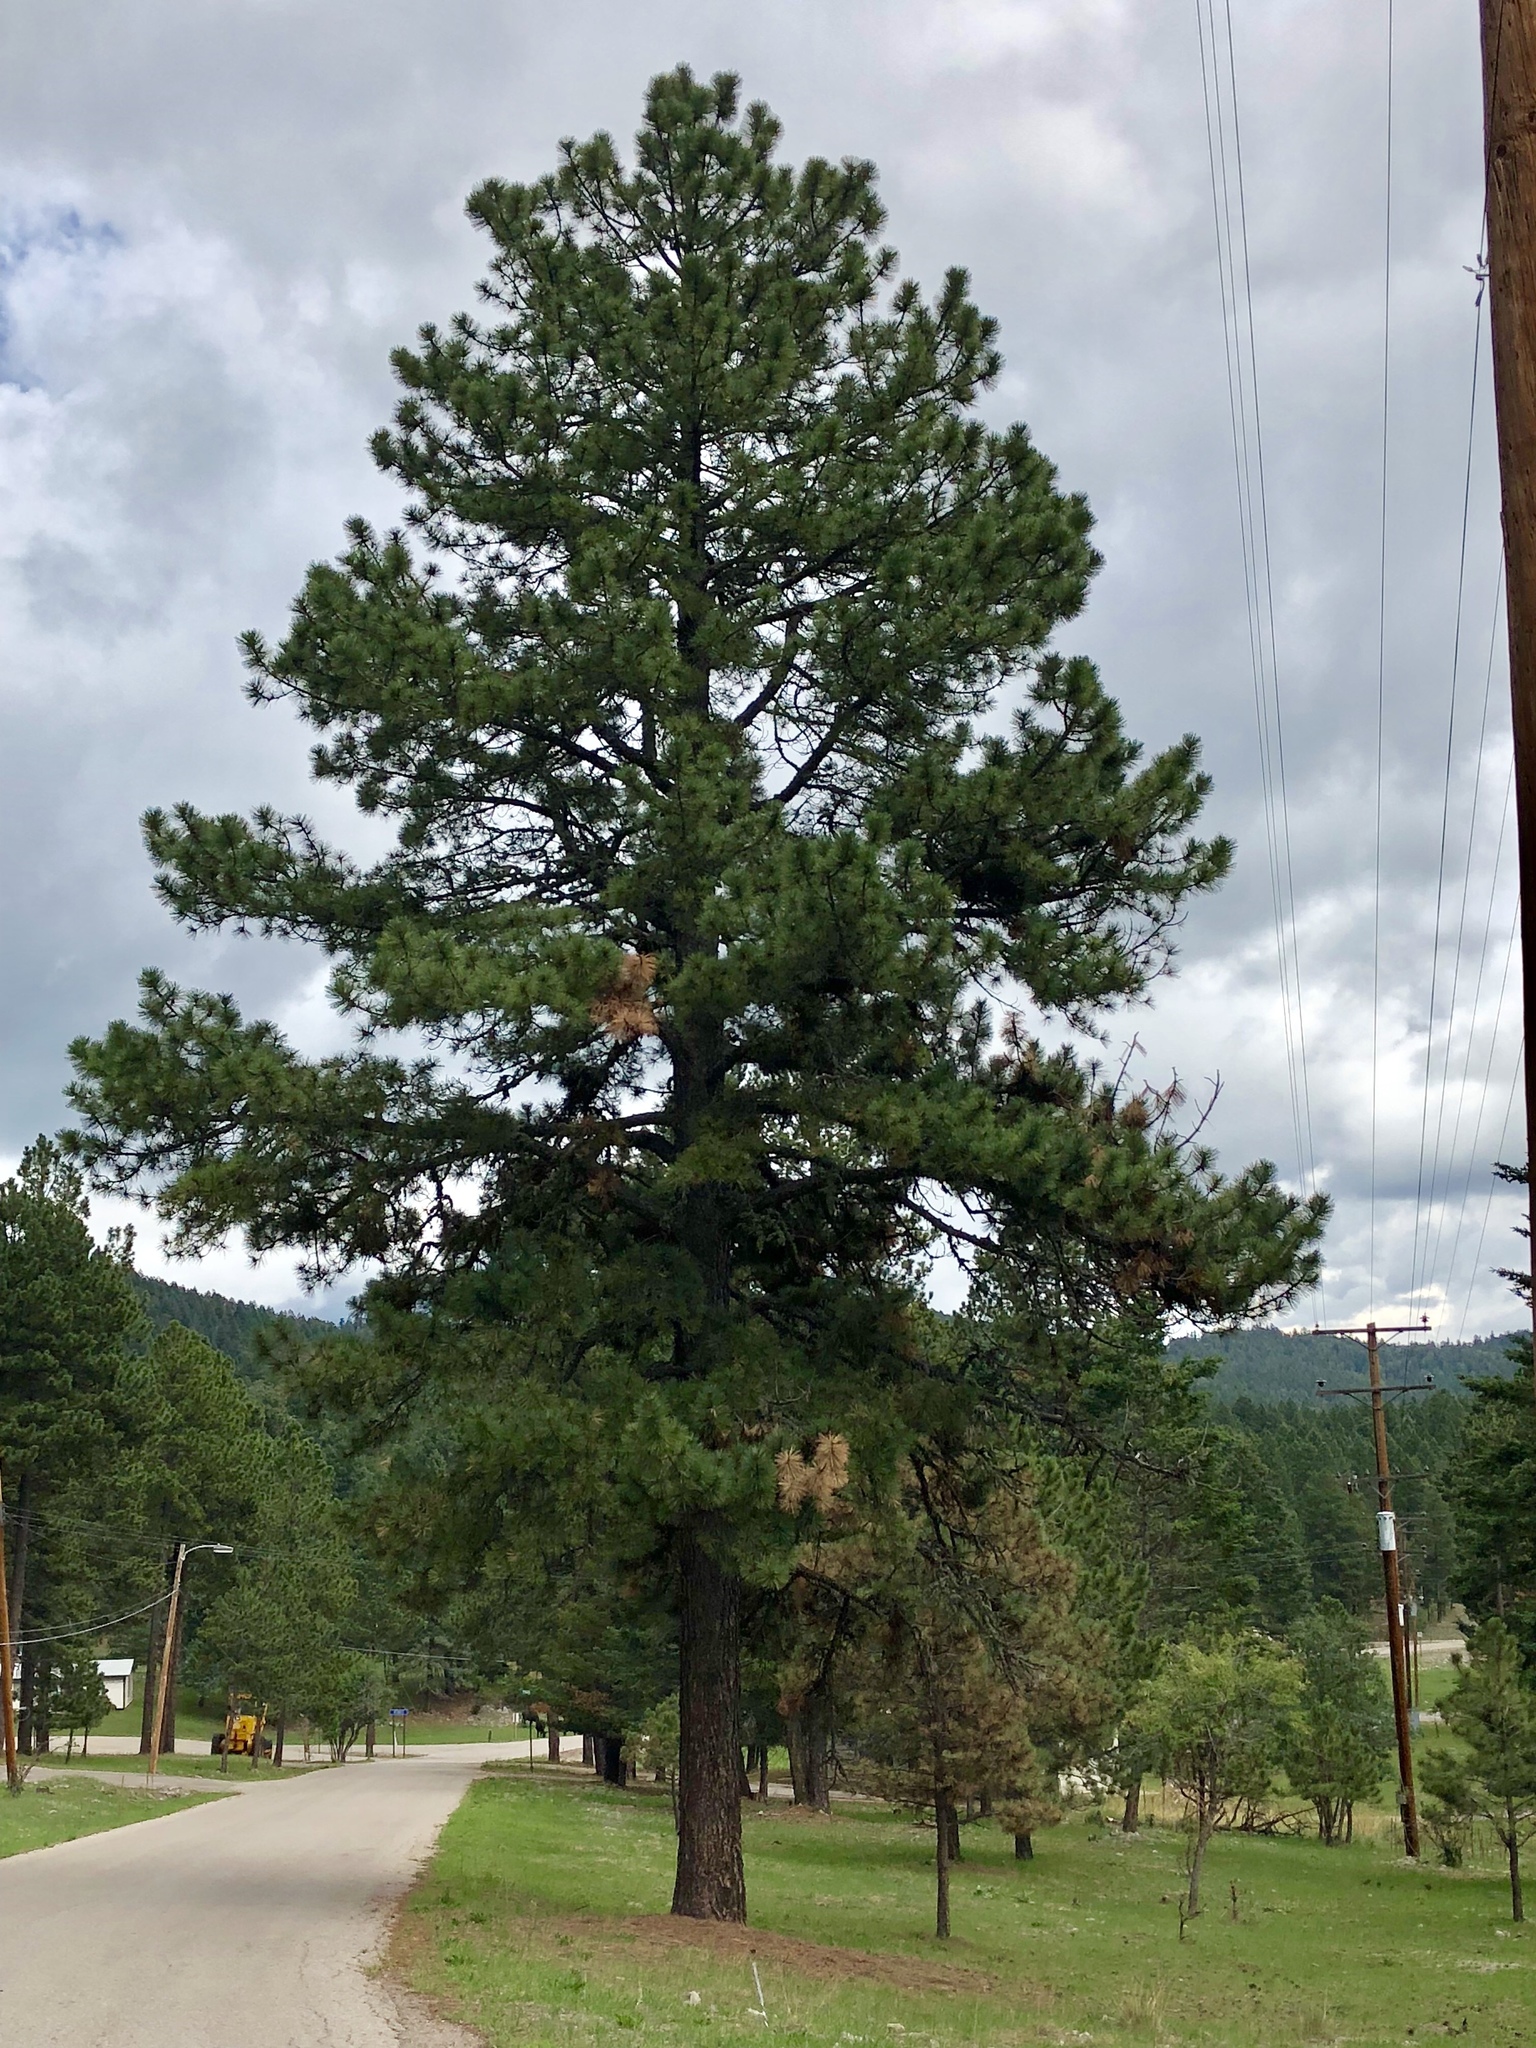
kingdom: Plantae
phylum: Tracheophyta
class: Pinopsida
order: Pinales
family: Pinaceae
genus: Pinus
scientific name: Pinus ponderosa
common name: Western yellow-pine
